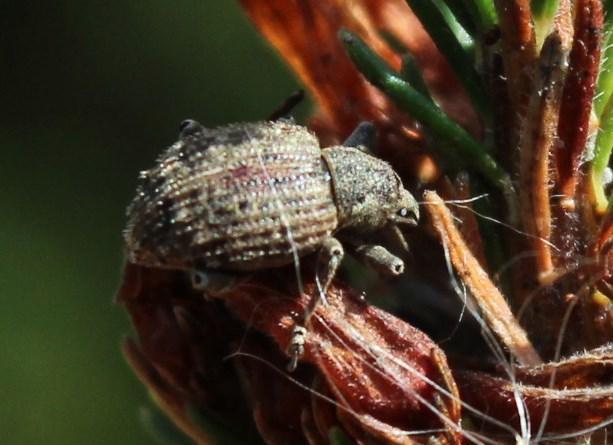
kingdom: Animalia
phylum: Arthropoda
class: Insecta
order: Coleoptera
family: Curculionidae
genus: Phlyctinus
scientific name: Phlyctinus callosus
